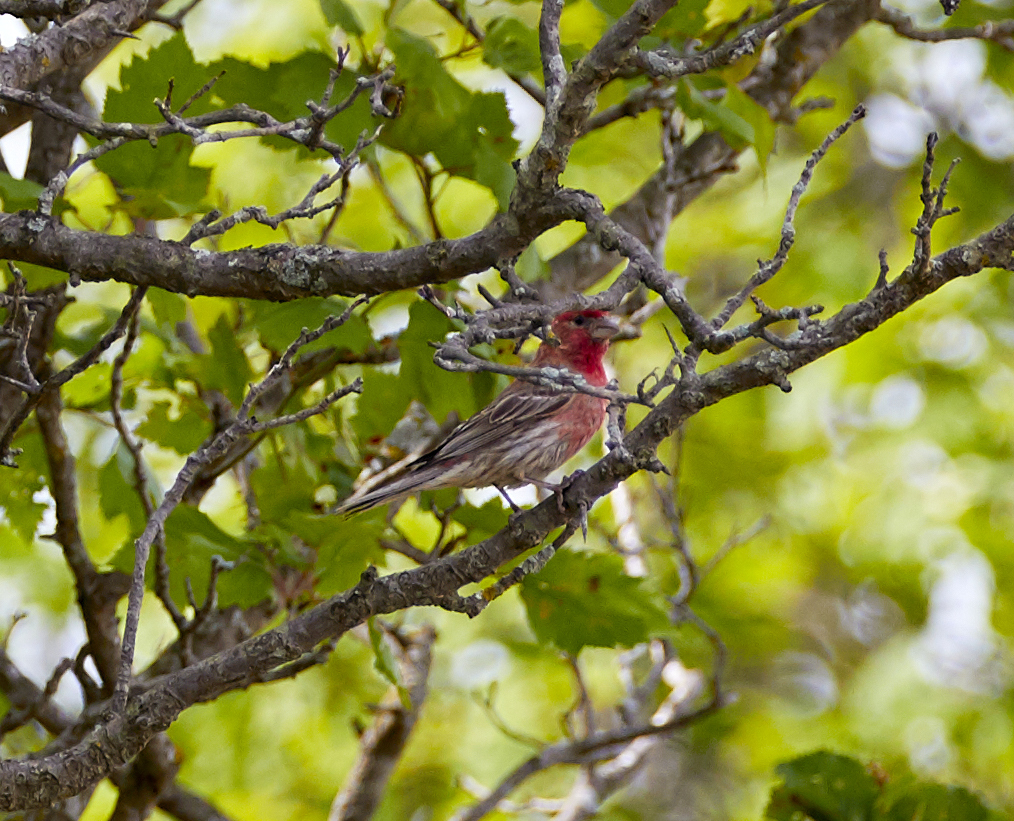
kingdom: Animalia
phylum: Chordata
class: Aves
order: Passeriformes
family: Fringillidae
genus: Haemorhous
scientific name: Haemorhous mexicanus
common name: House finch
